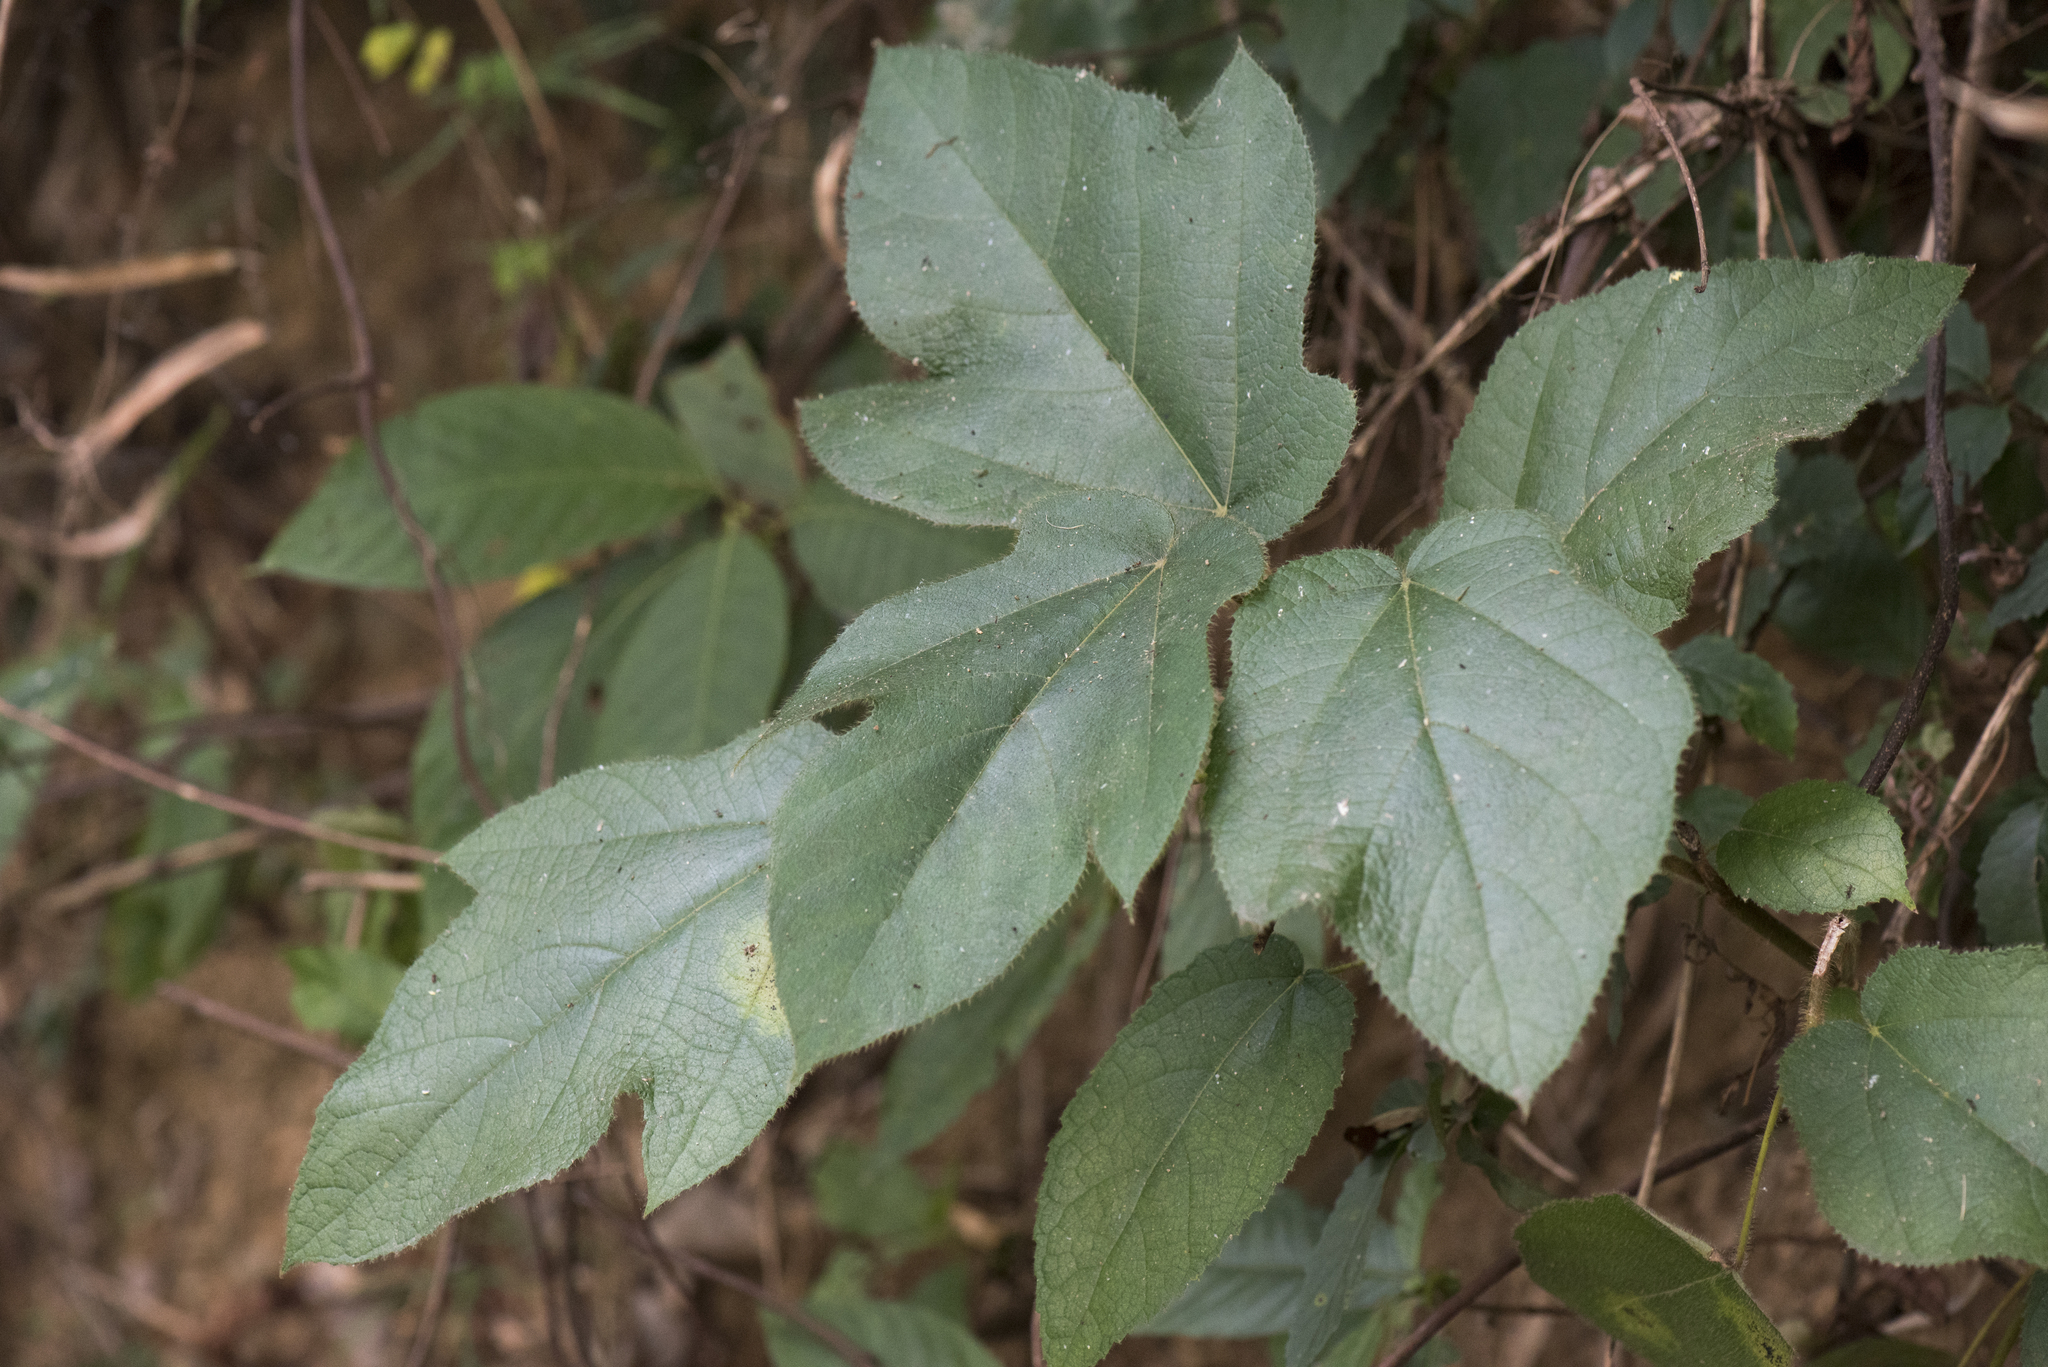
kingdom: Plantae
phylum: Tracheophyta
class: Magnoliopsida
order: Rosales
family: Moraceae
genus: Ficus
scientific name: Ficus triloba
